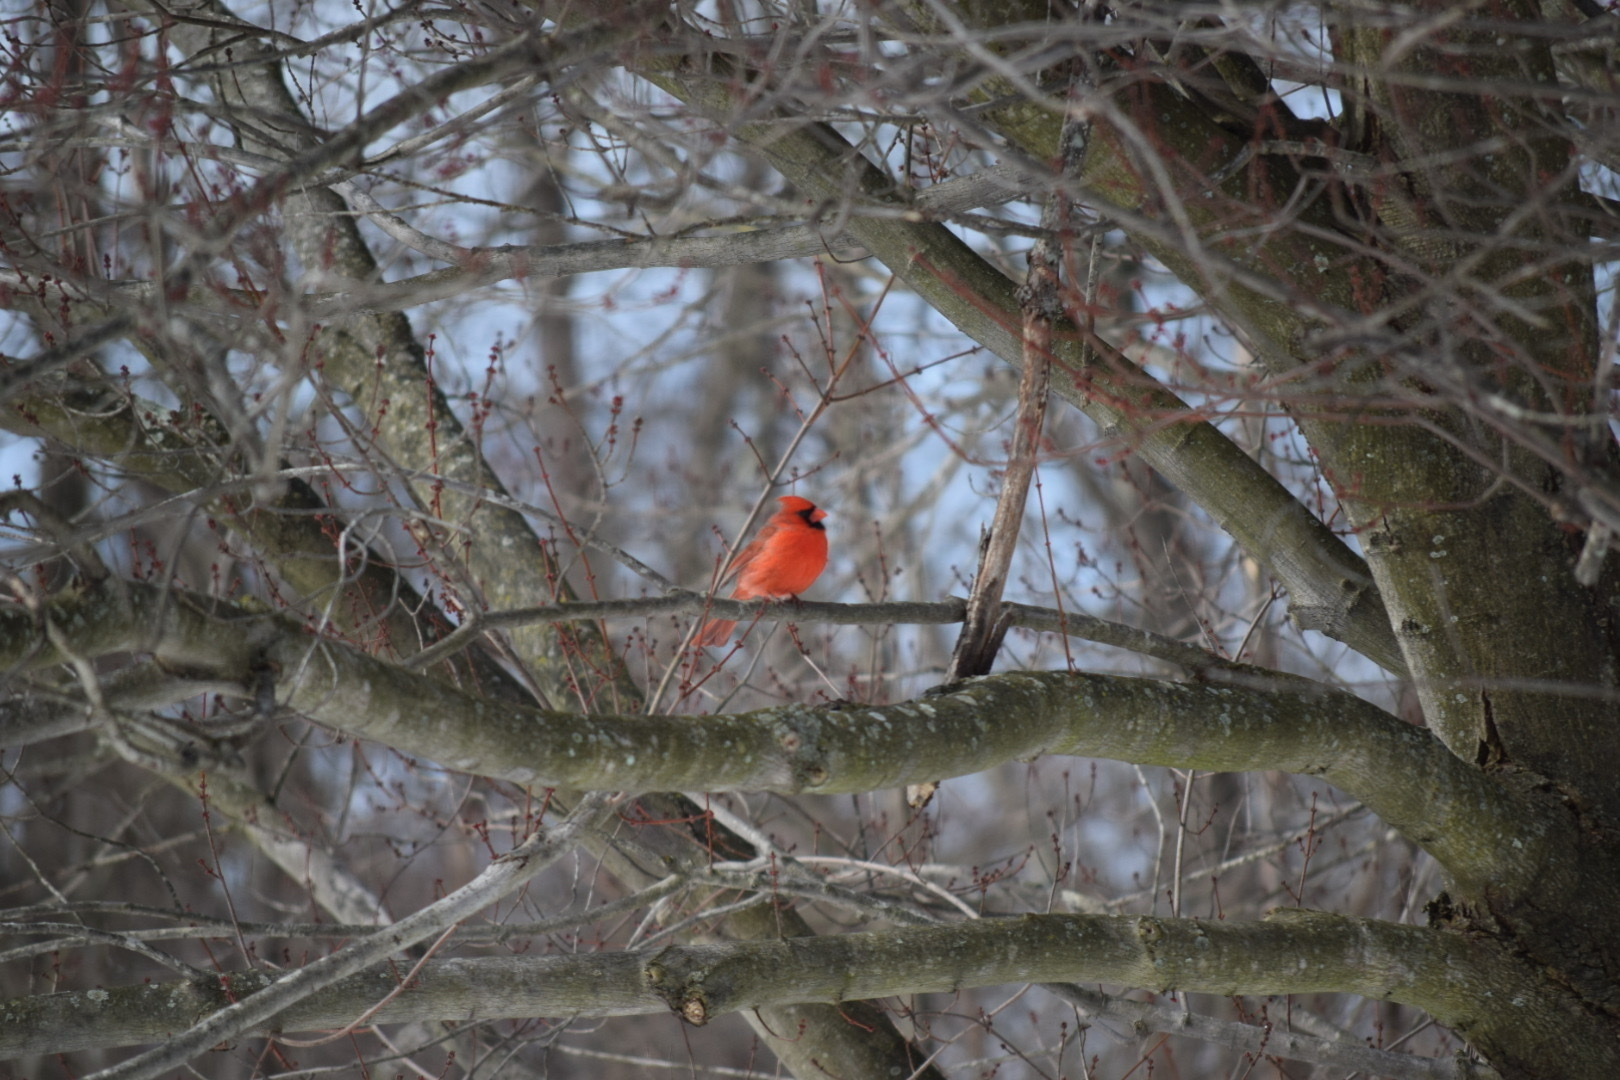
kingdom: Animalia
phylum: Chordata
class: Aves
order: Passeriformes
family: Cardinalidae
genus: Cardinalis
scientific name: Cardinalis cardinalis
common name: Northern cardinal
